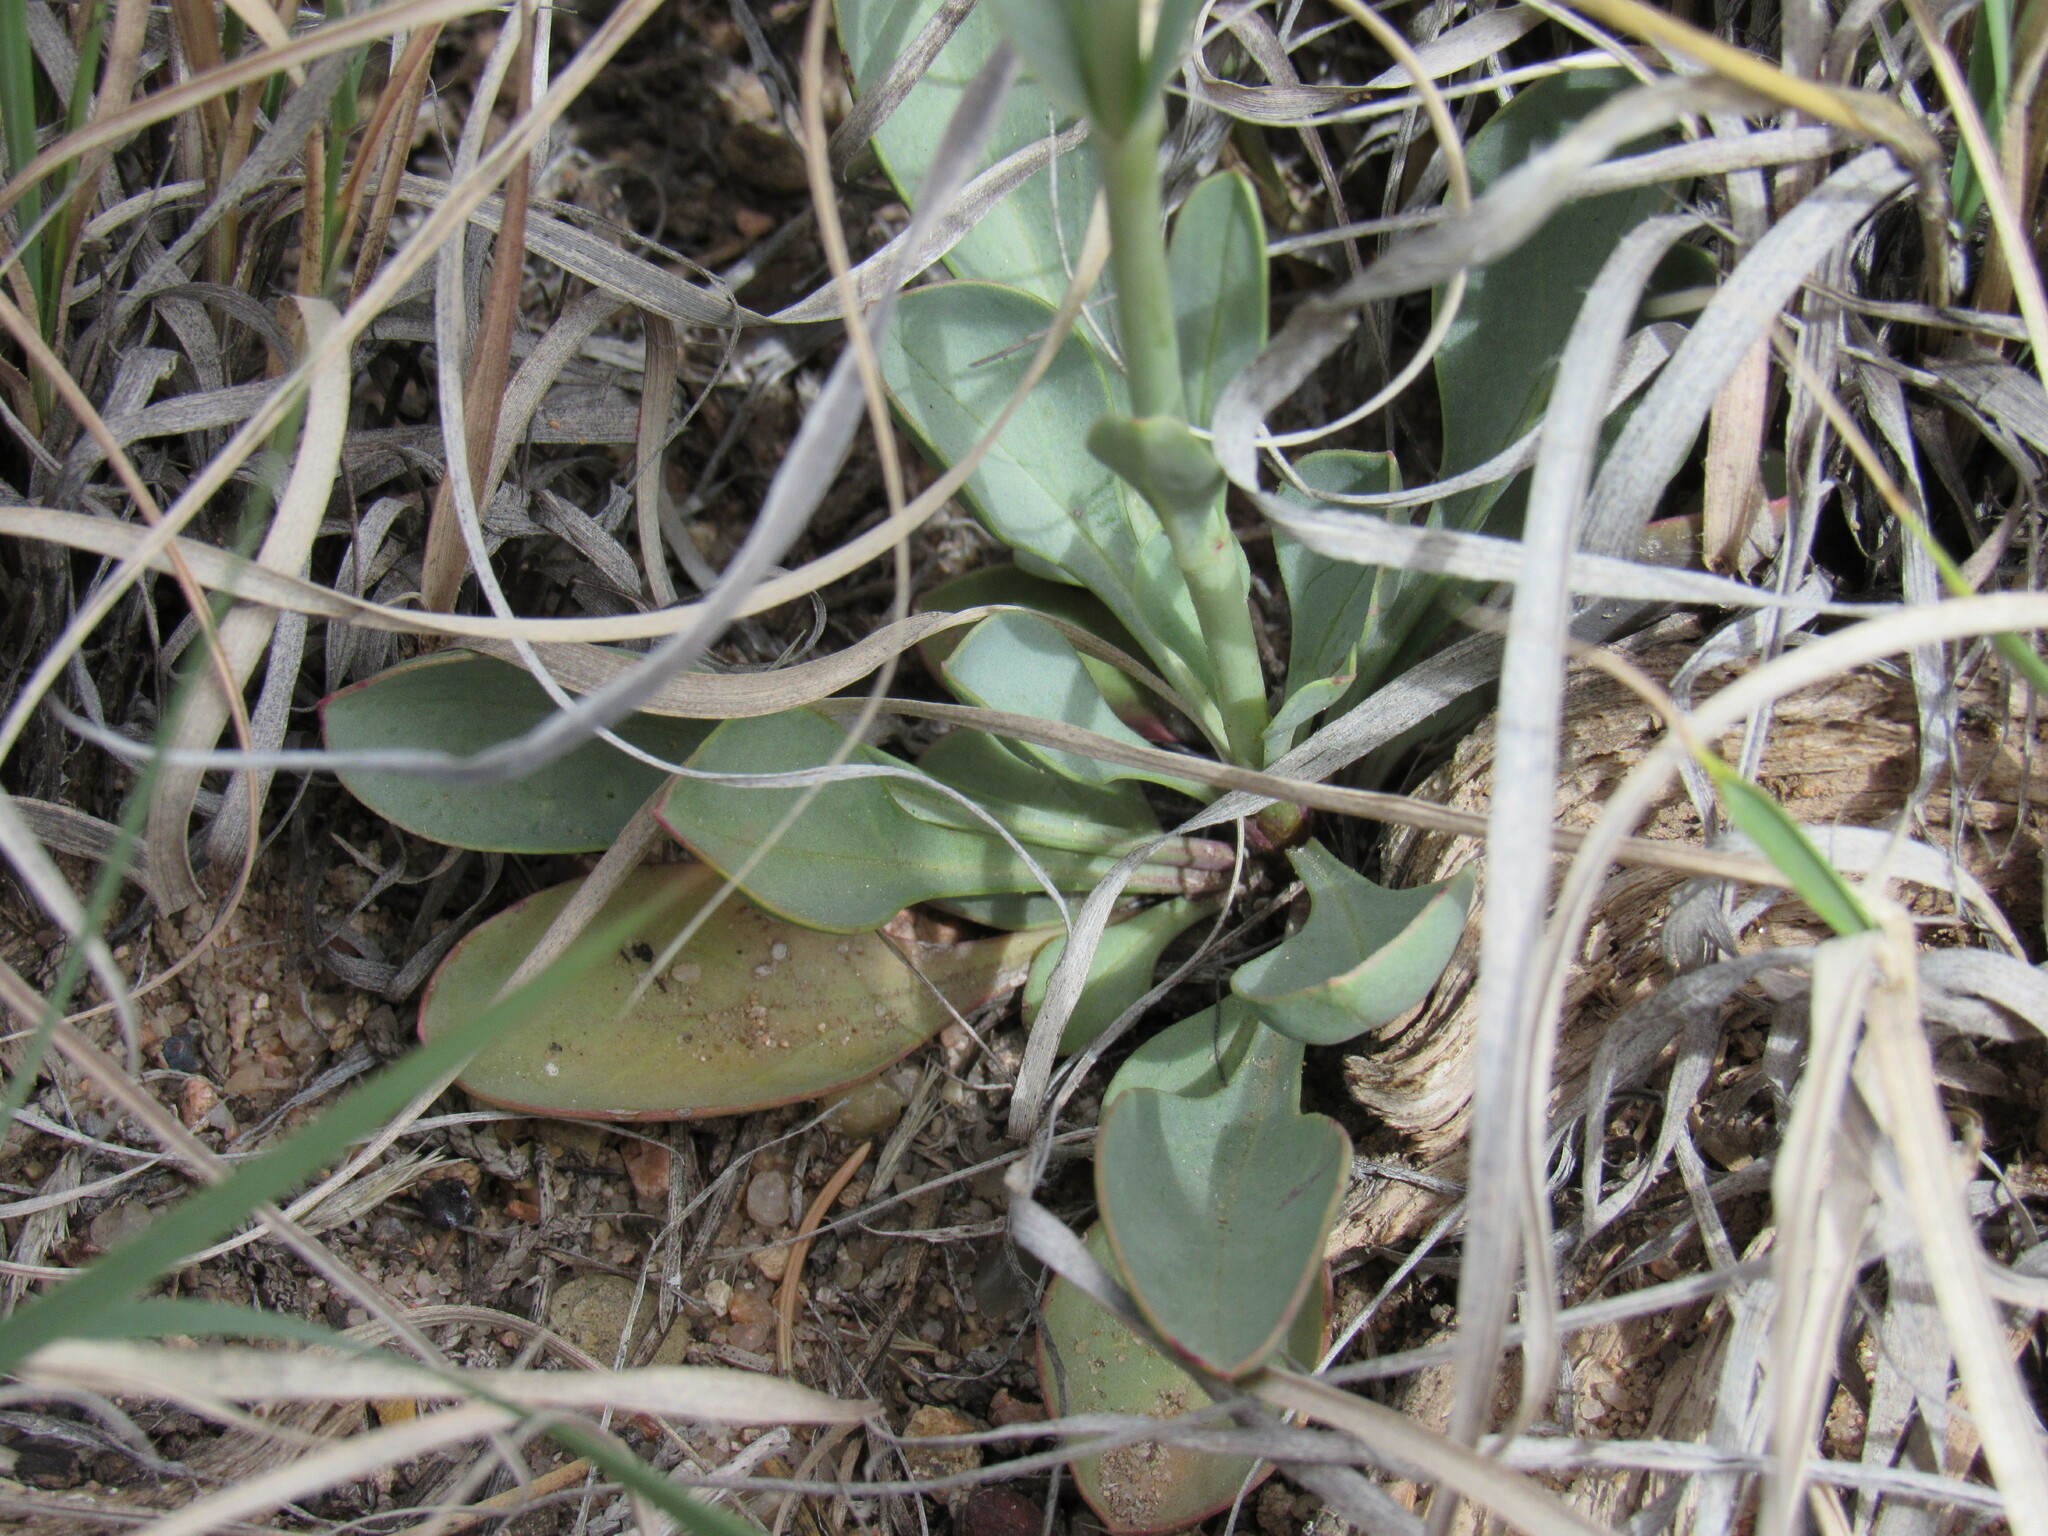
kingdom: Plantae
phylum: Tracheophyta
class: Magnoliopsida
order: Lamiales
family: Plantaginaceae
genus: Penstemon
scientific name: Penstemon secundiflorus
